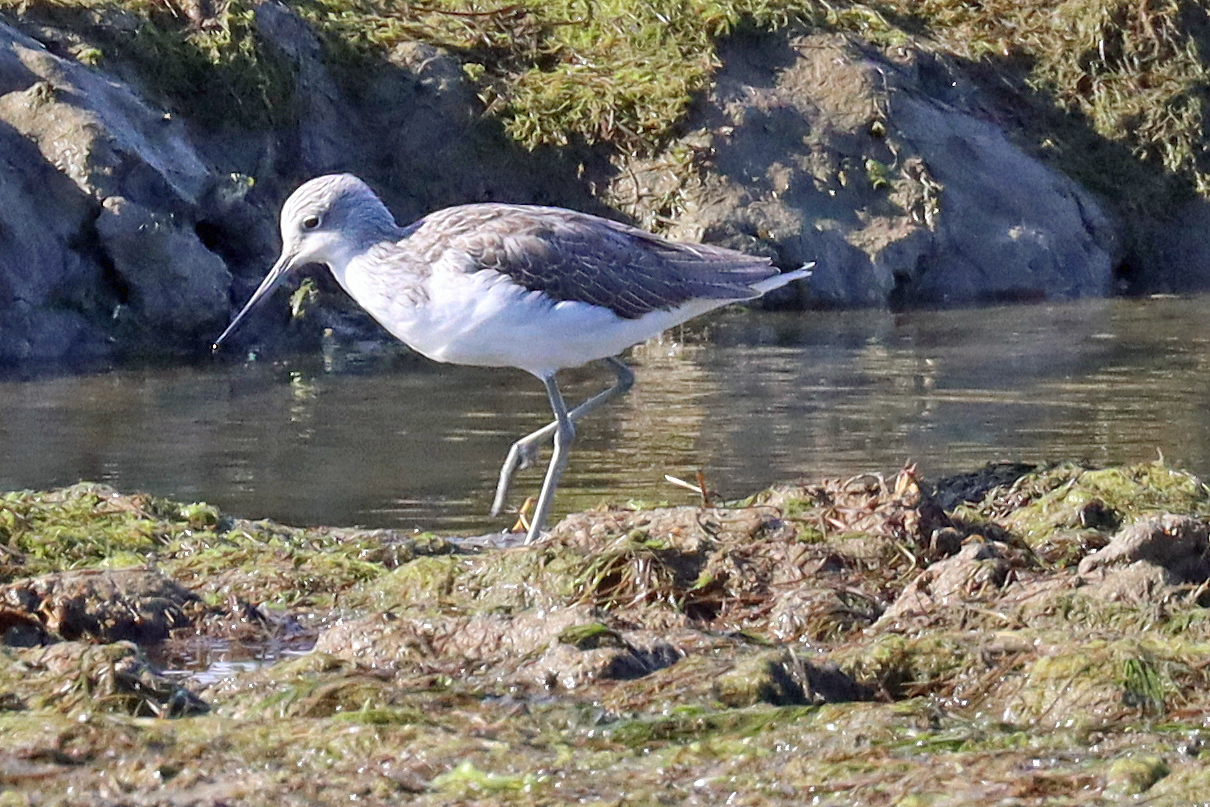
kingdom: Animalia
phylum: Chordata
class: Aves
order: Charadriiformes
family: Scolopacidae
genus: Tringa
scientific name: Tringa nebularia
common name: Common greenshank
